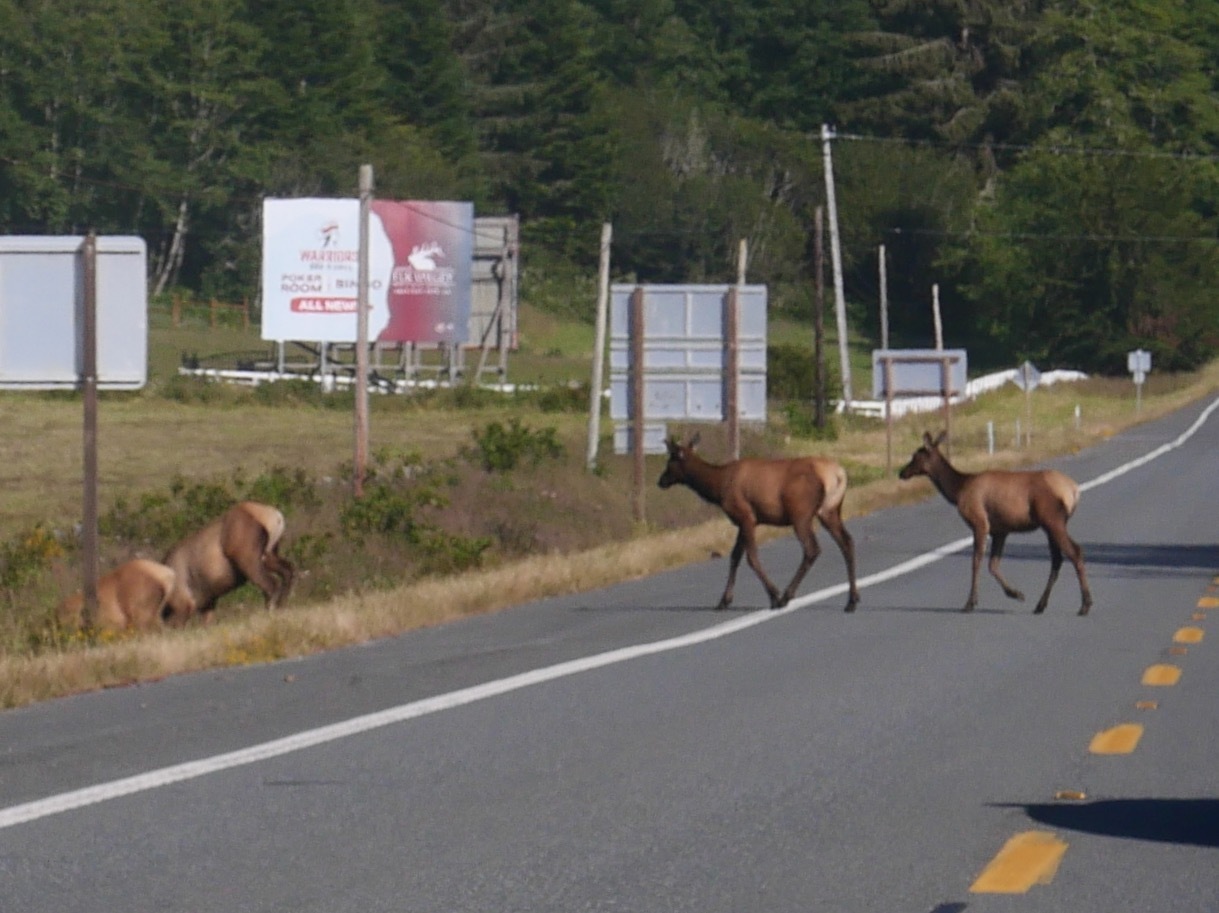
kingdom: Animalia
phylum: Chordata
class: Mammalia
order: Artiodactyla
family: Cervidae
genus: Cervus
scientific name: Cervus elaphus
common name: Red deer
